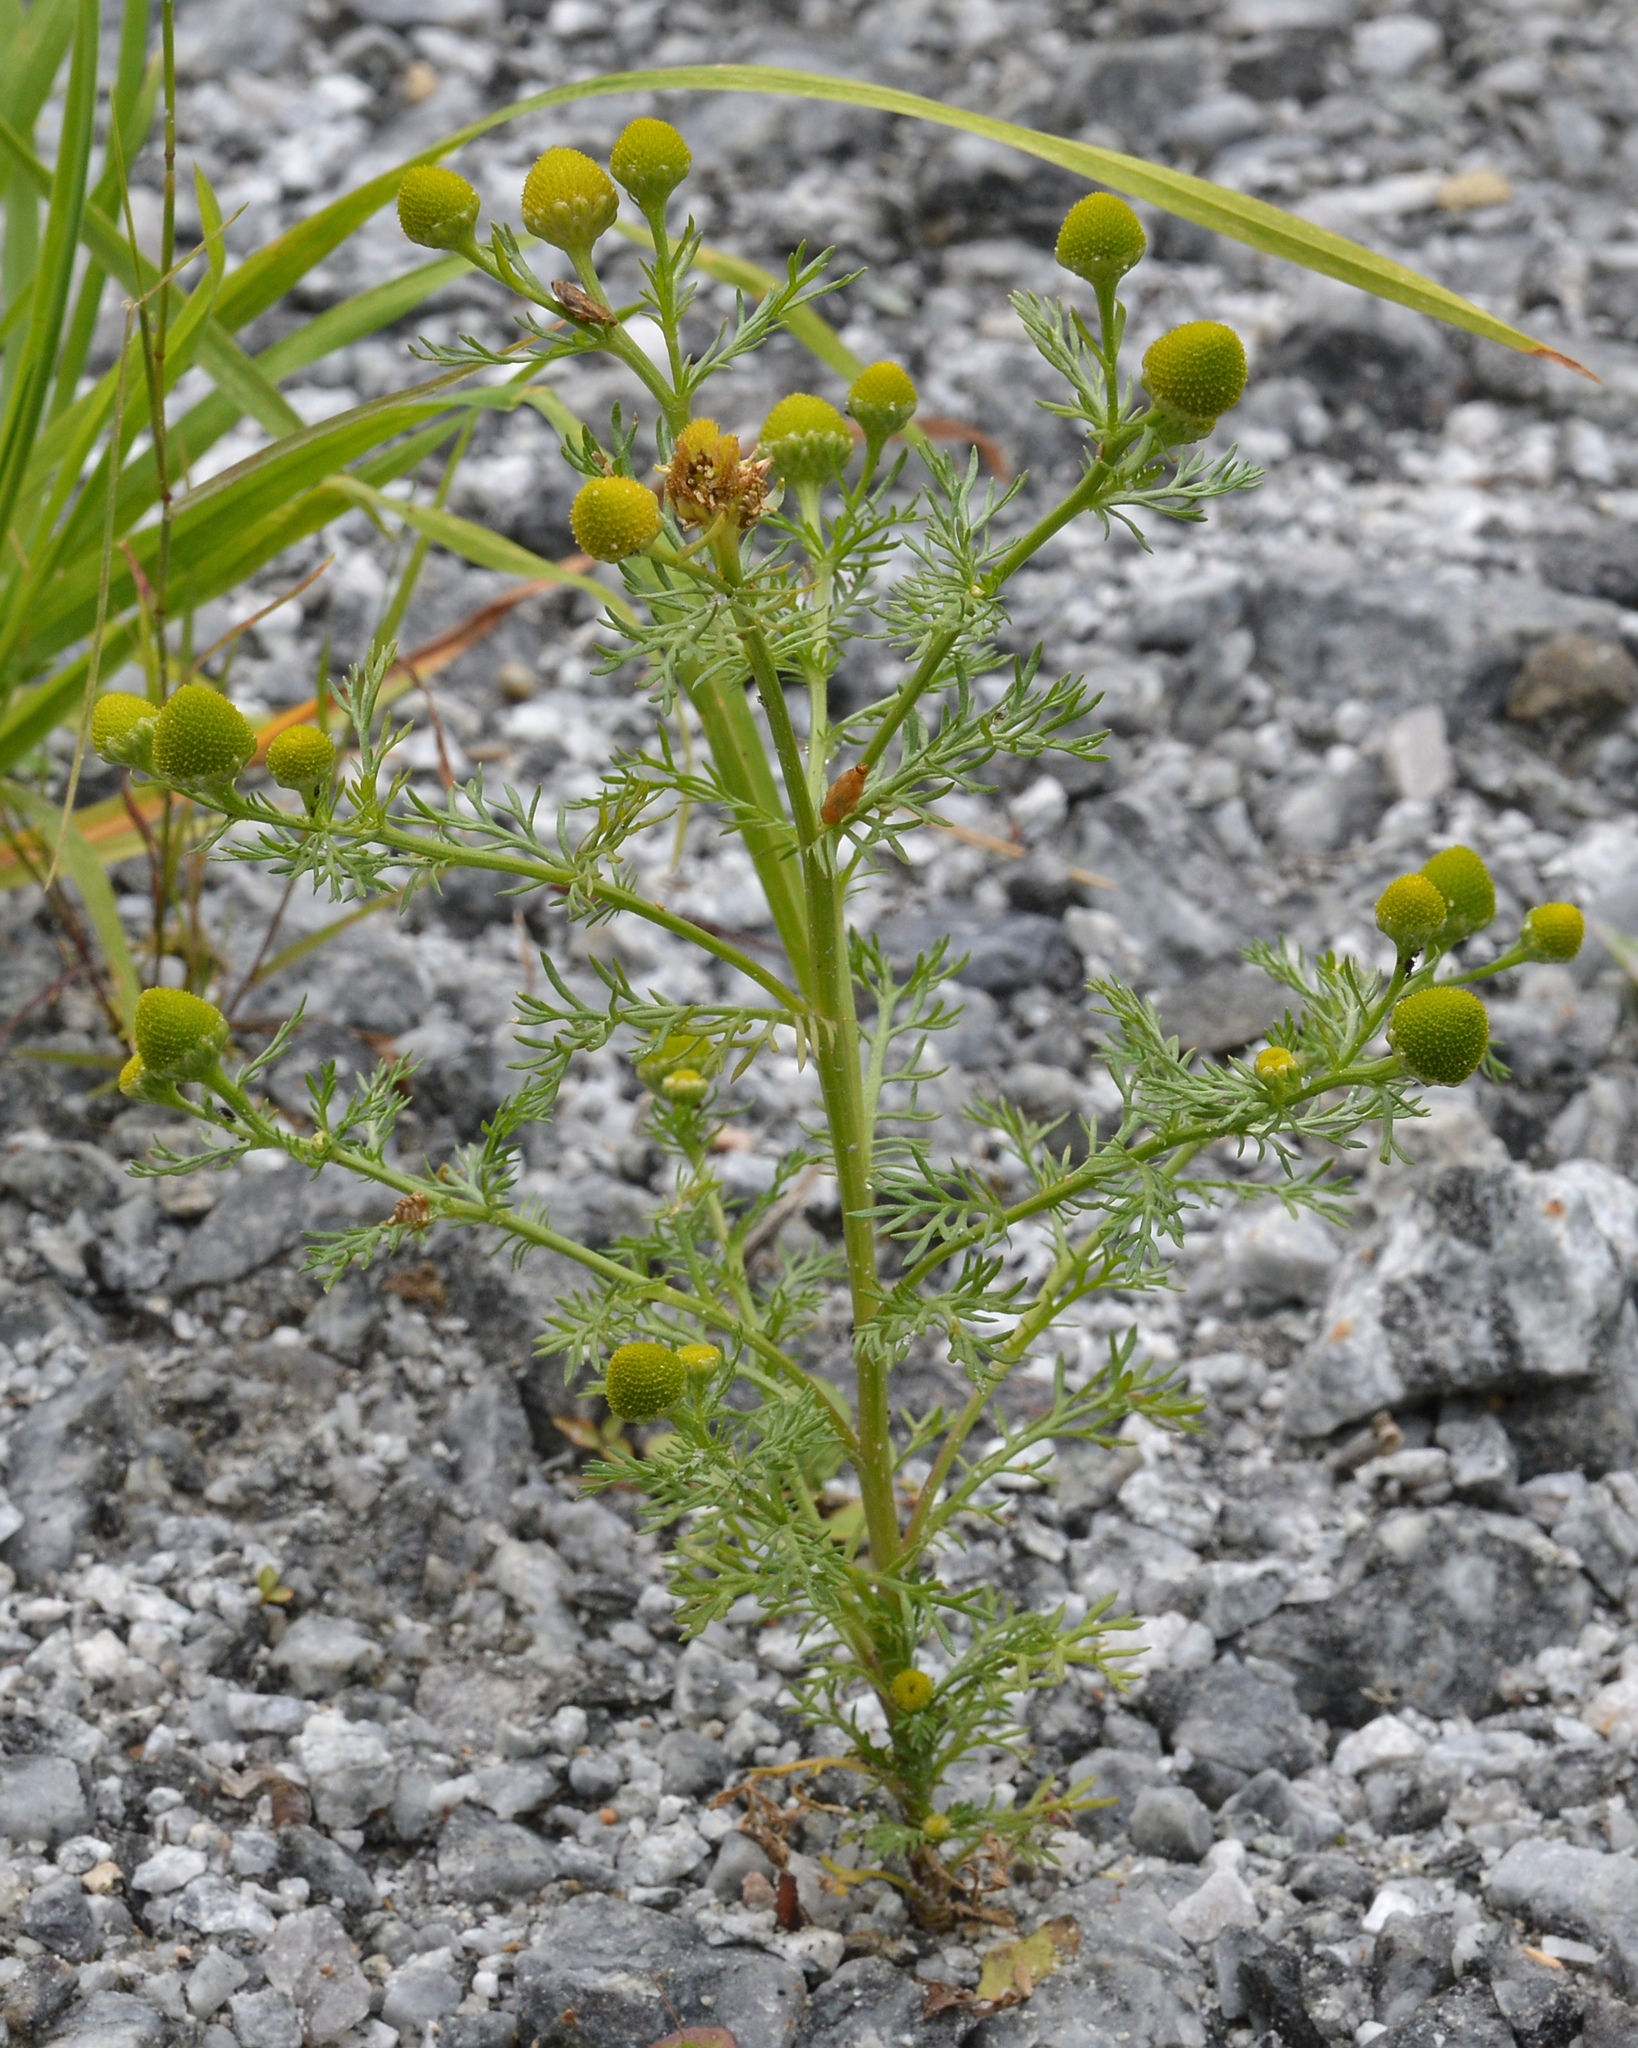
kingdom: Plantae
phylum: Tracheophyta
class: Magnoliopsida
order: Asterales
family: Asteraceae
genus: Matricaria
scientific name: Matricaria discoidea
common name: Disc mayweed
